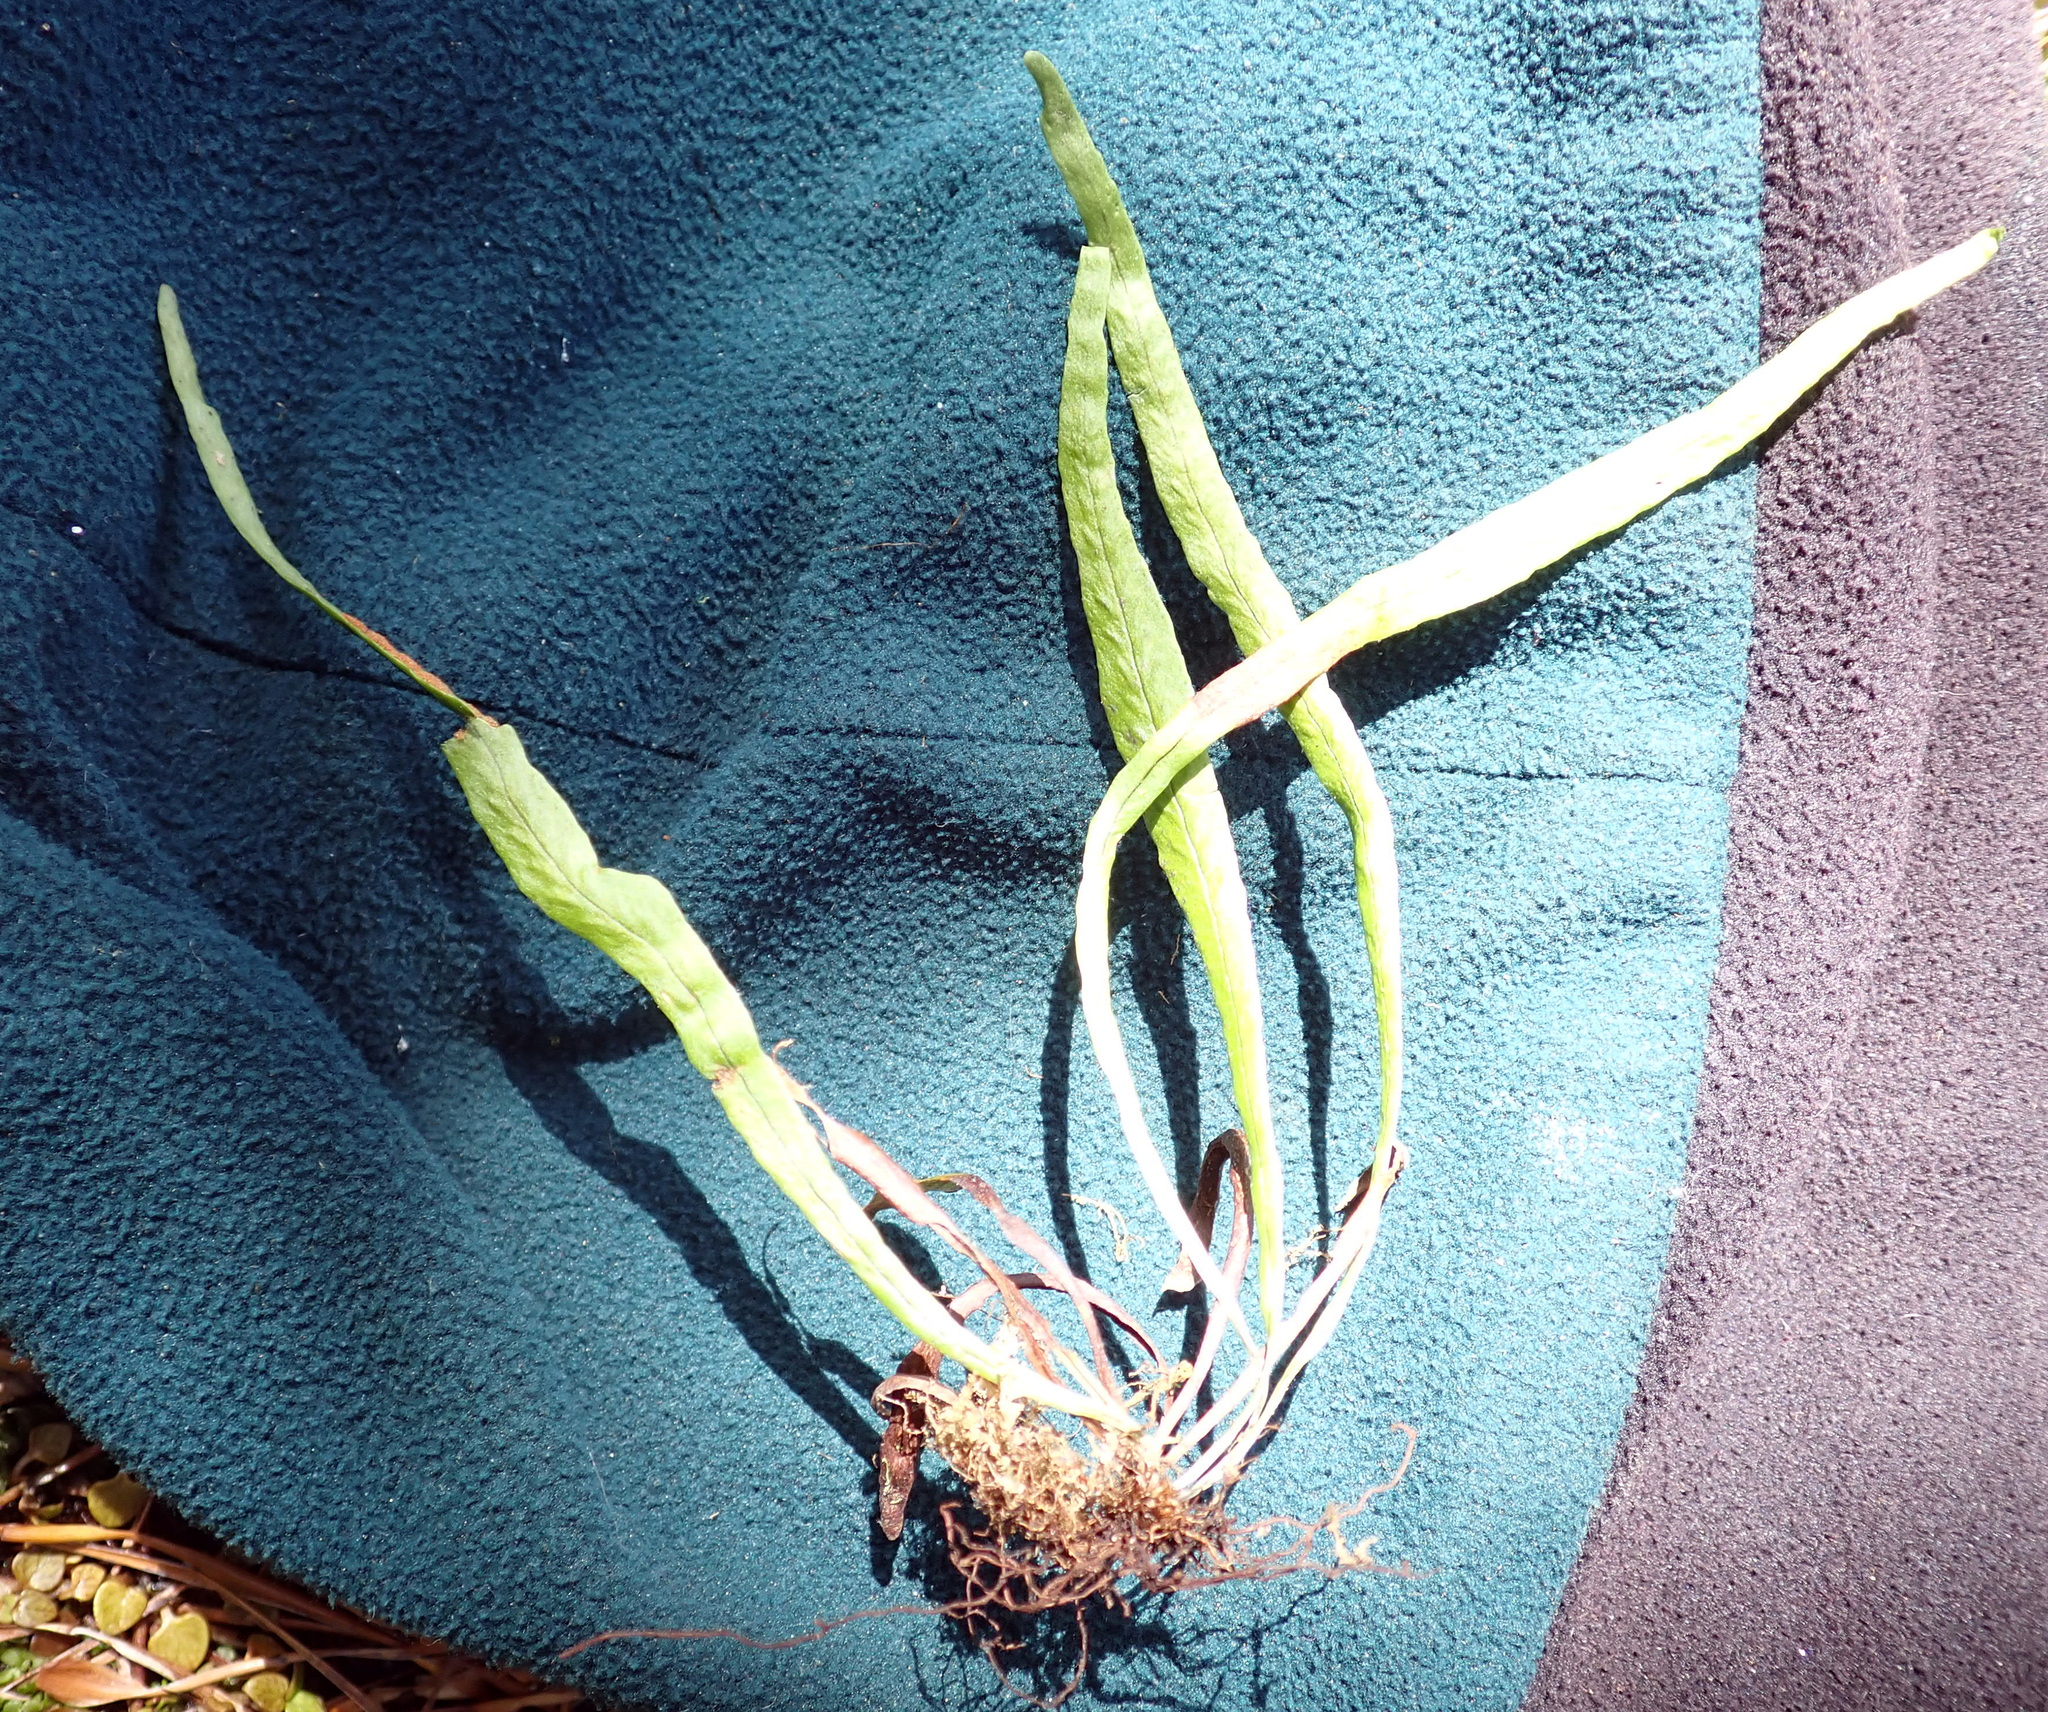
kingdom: Plantae
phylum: Tracheophyta
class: Polypodiopsida
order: Polypodiales
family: Polypodiaceae
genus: Notogrammitis
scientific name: Notogrammitis billardierei
